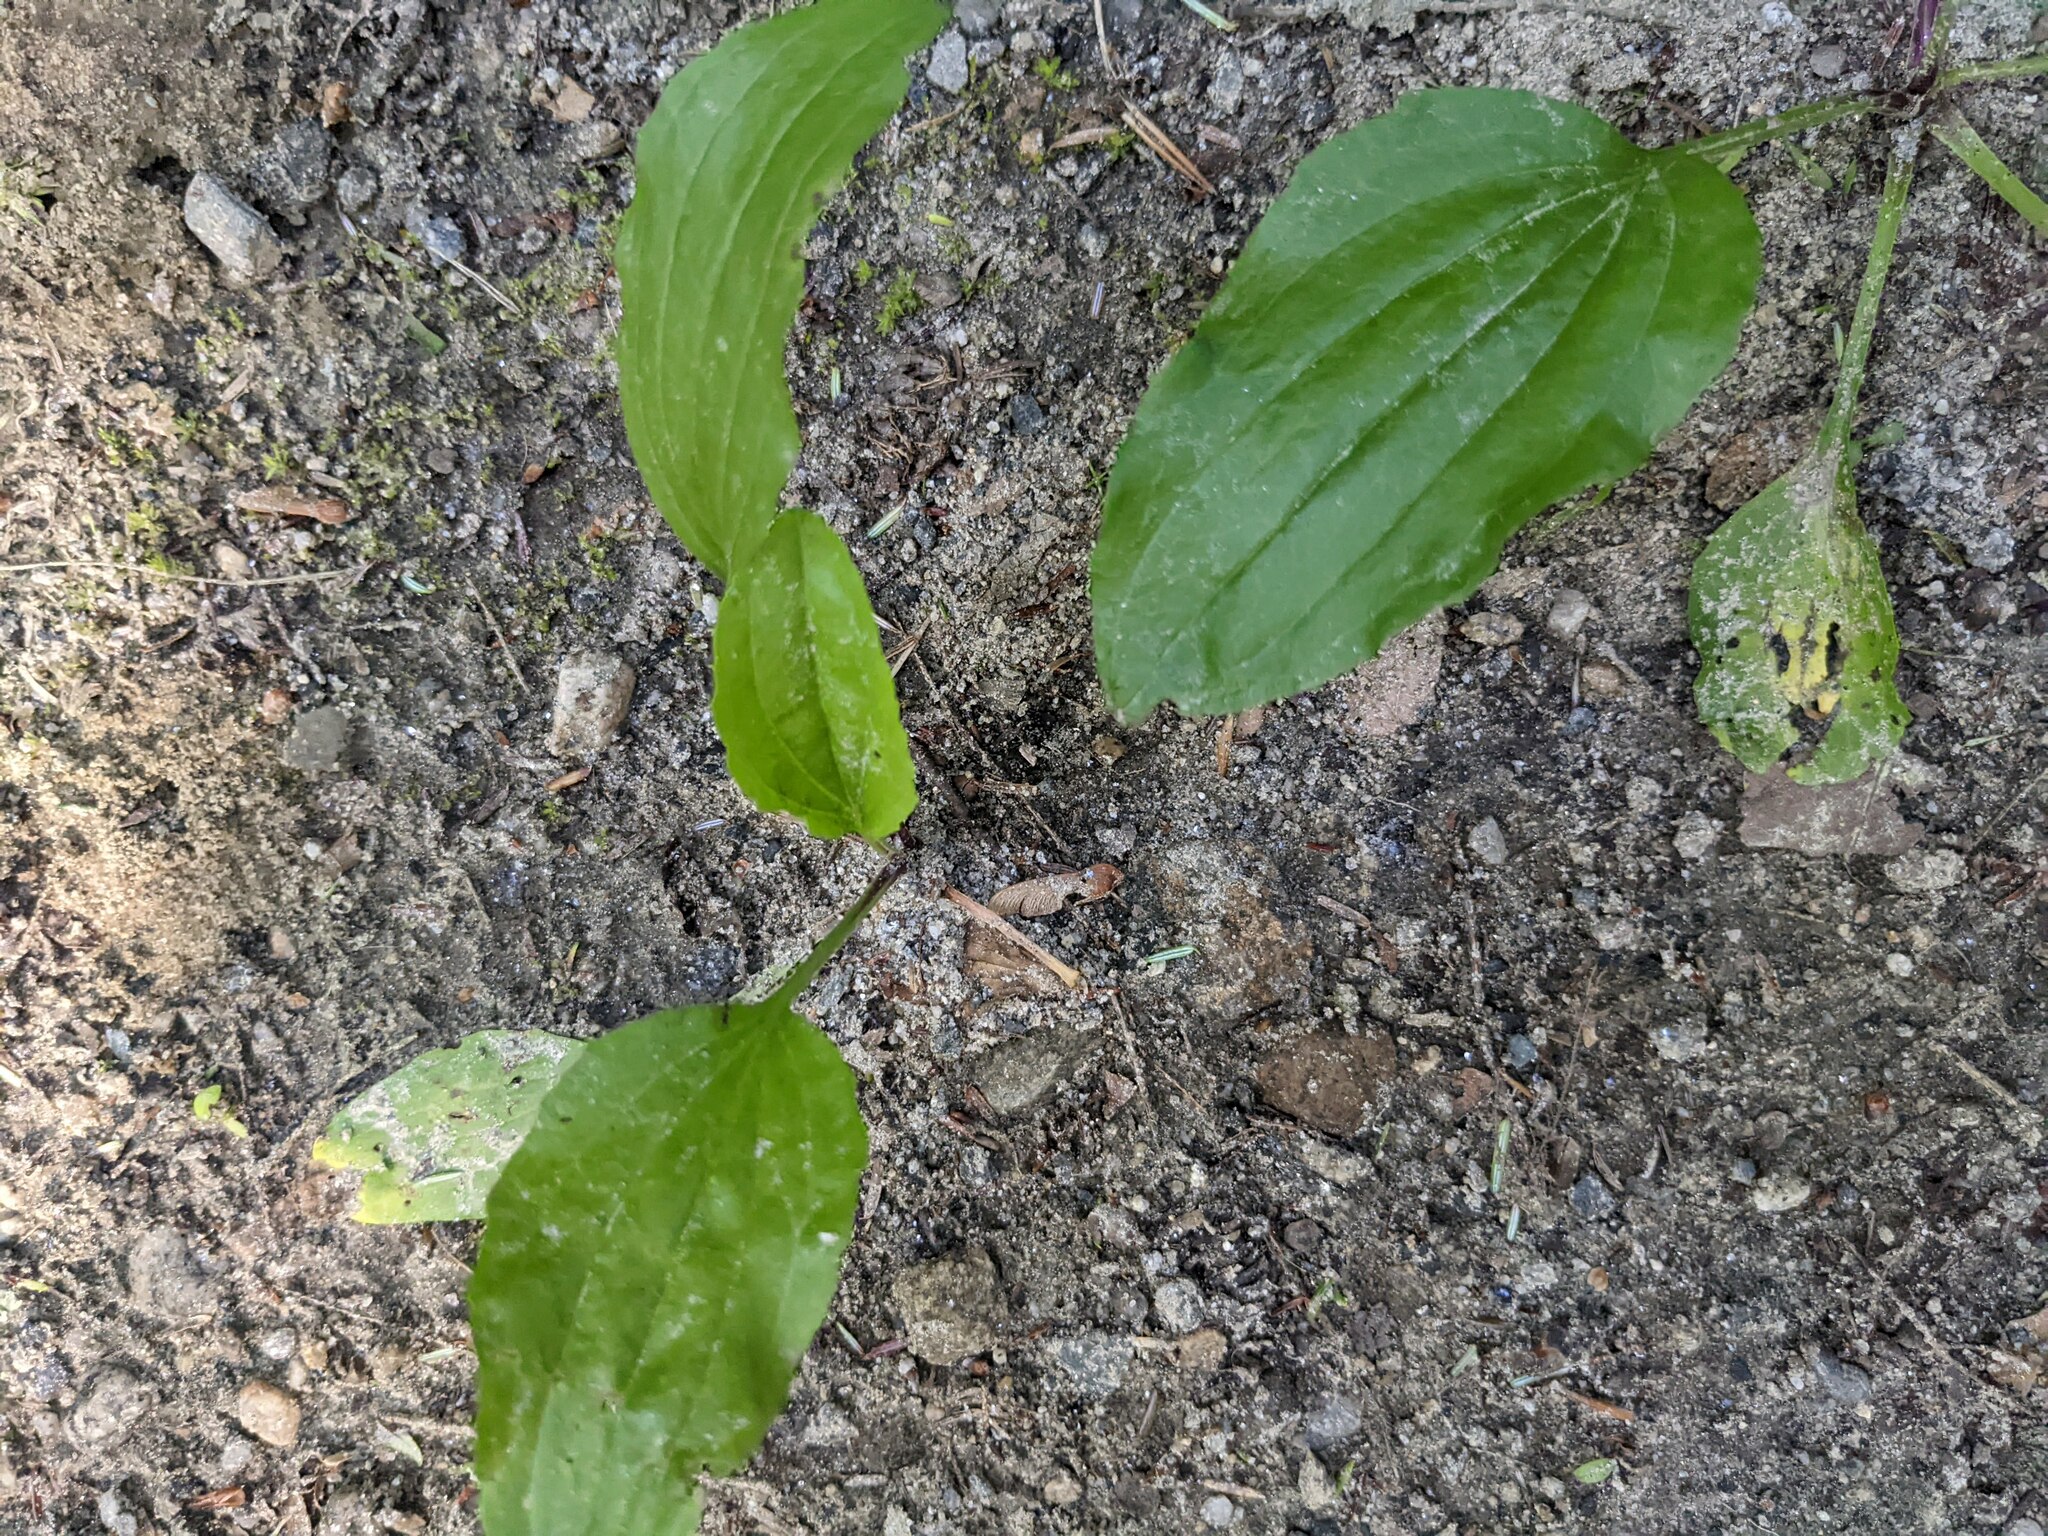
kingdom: Plantae
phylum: Tracheophyta
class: Magnoliopsida
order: Lamiales
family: Plantaginaceae
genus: Plantago
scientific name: Plantago rugelii
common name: American plantain
